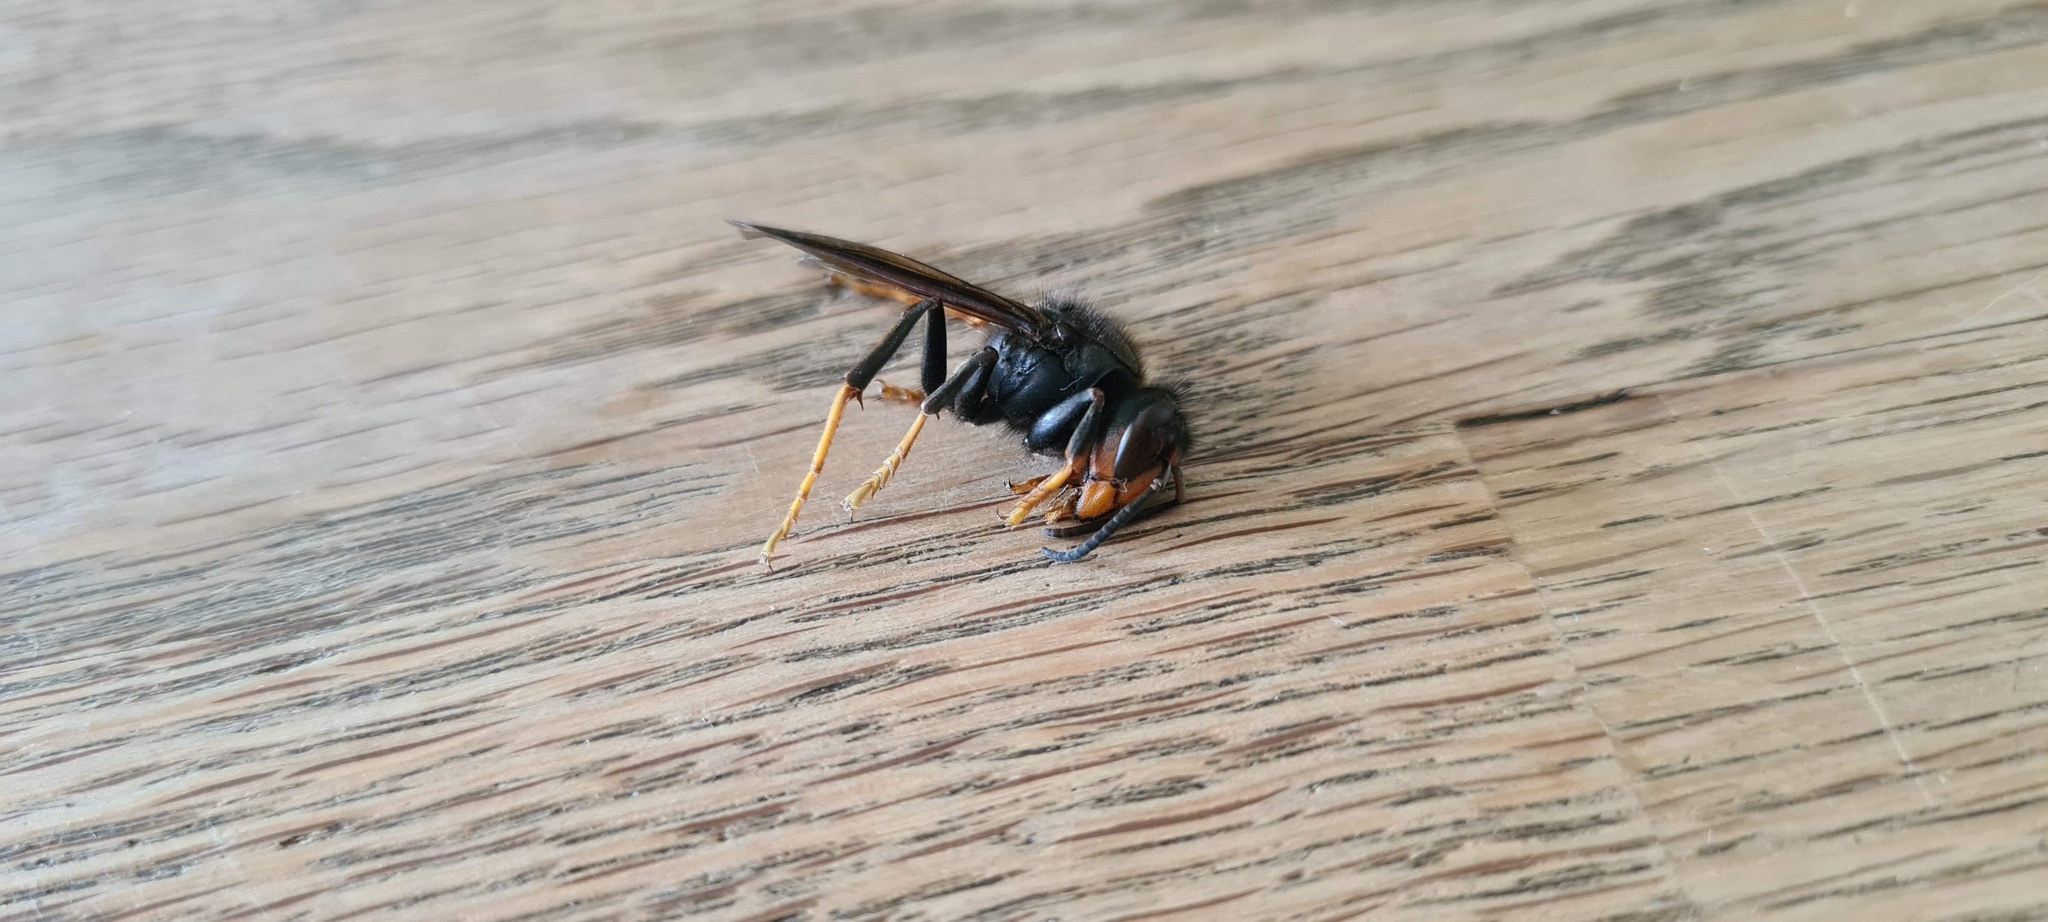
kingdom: Animalia
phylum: Arthropoda
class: Insecta
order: Hymenoptera
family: Vespidae
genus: Vespa
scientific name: Vespa velutina
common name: Asian hornet
